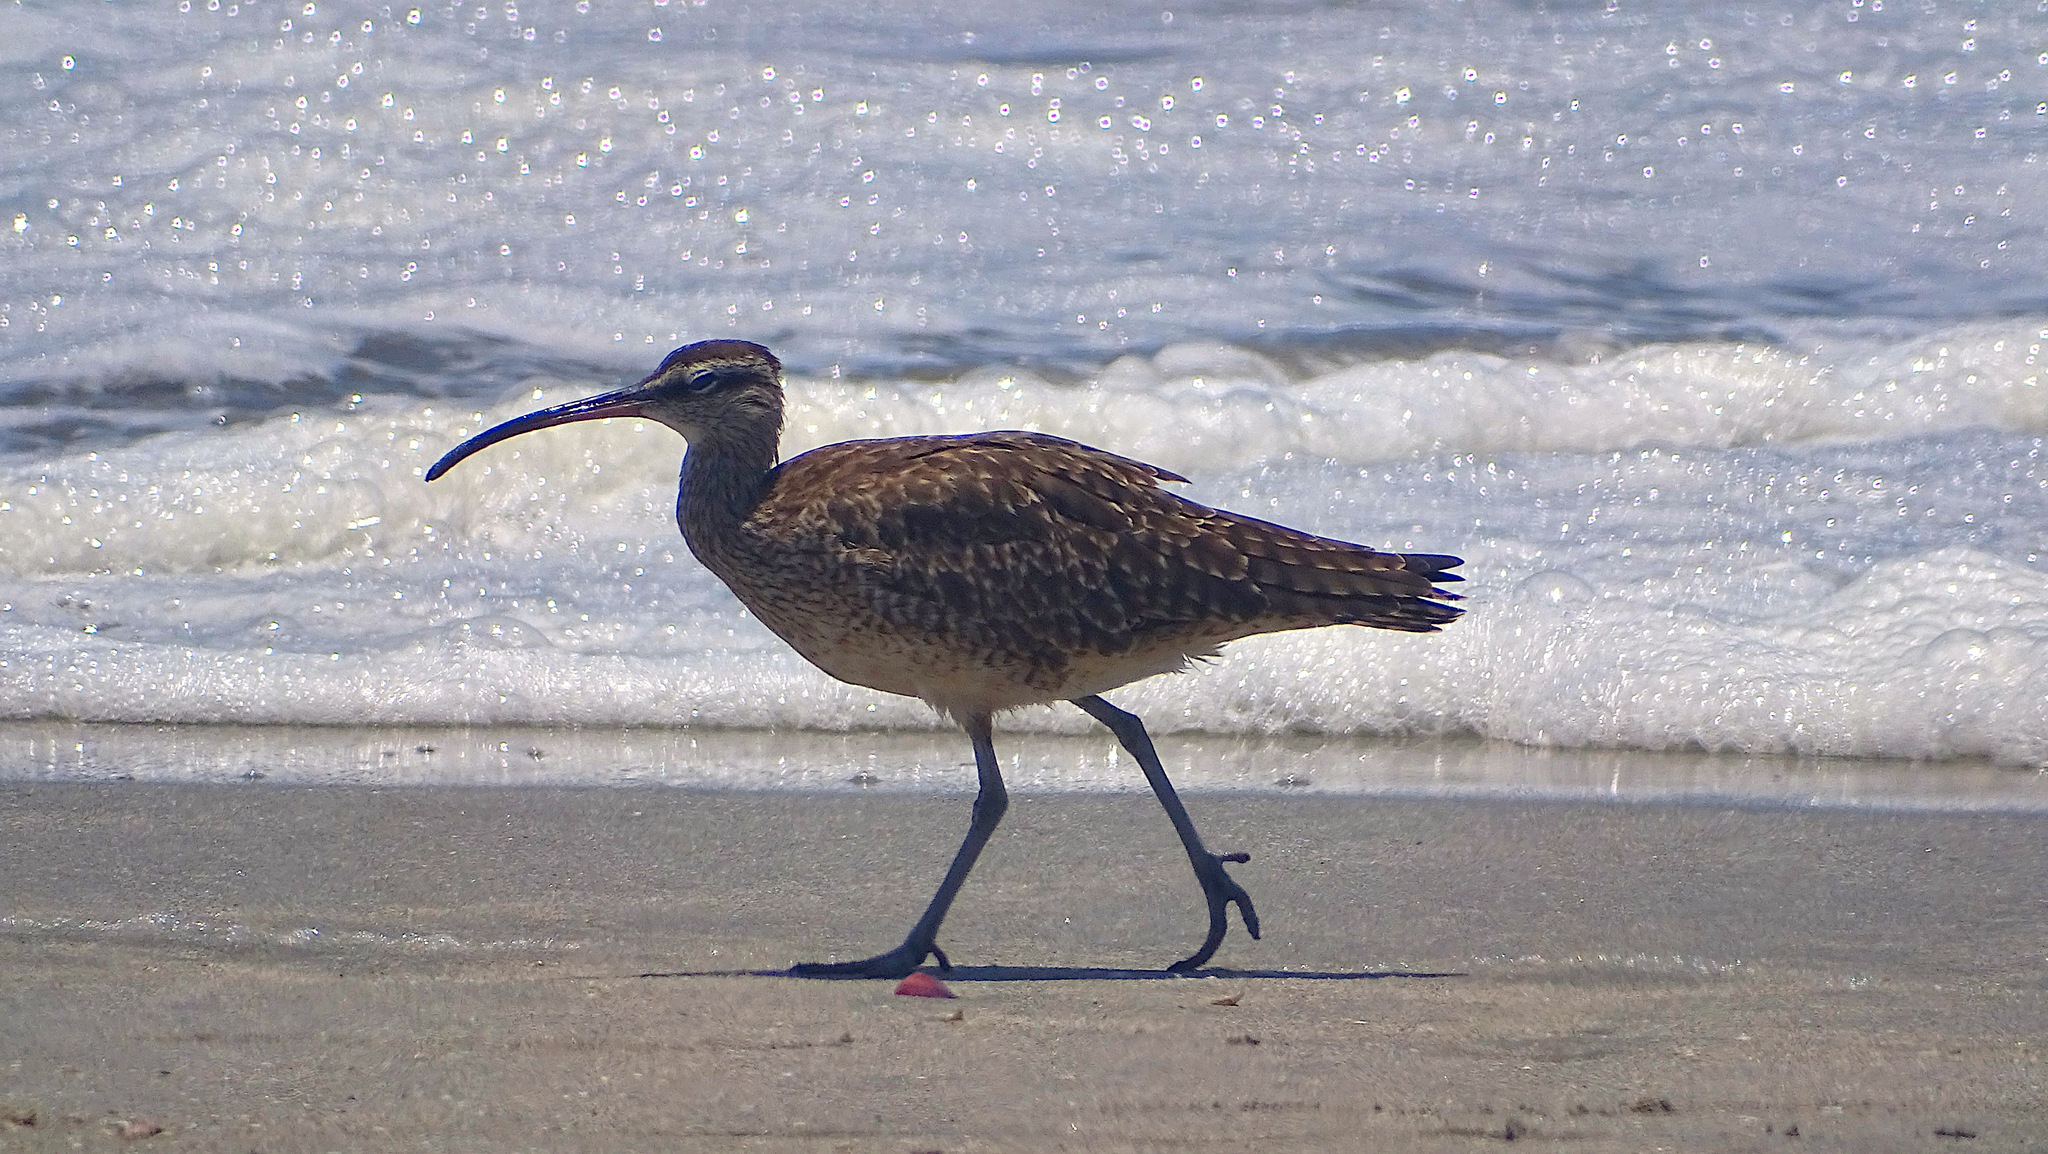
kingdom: Animalia
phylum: Chordata
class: Aves
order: Charadriiformes
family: Scolopacidae
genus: Numenius
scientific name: Numenius phaeopus
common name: Whimbrel
